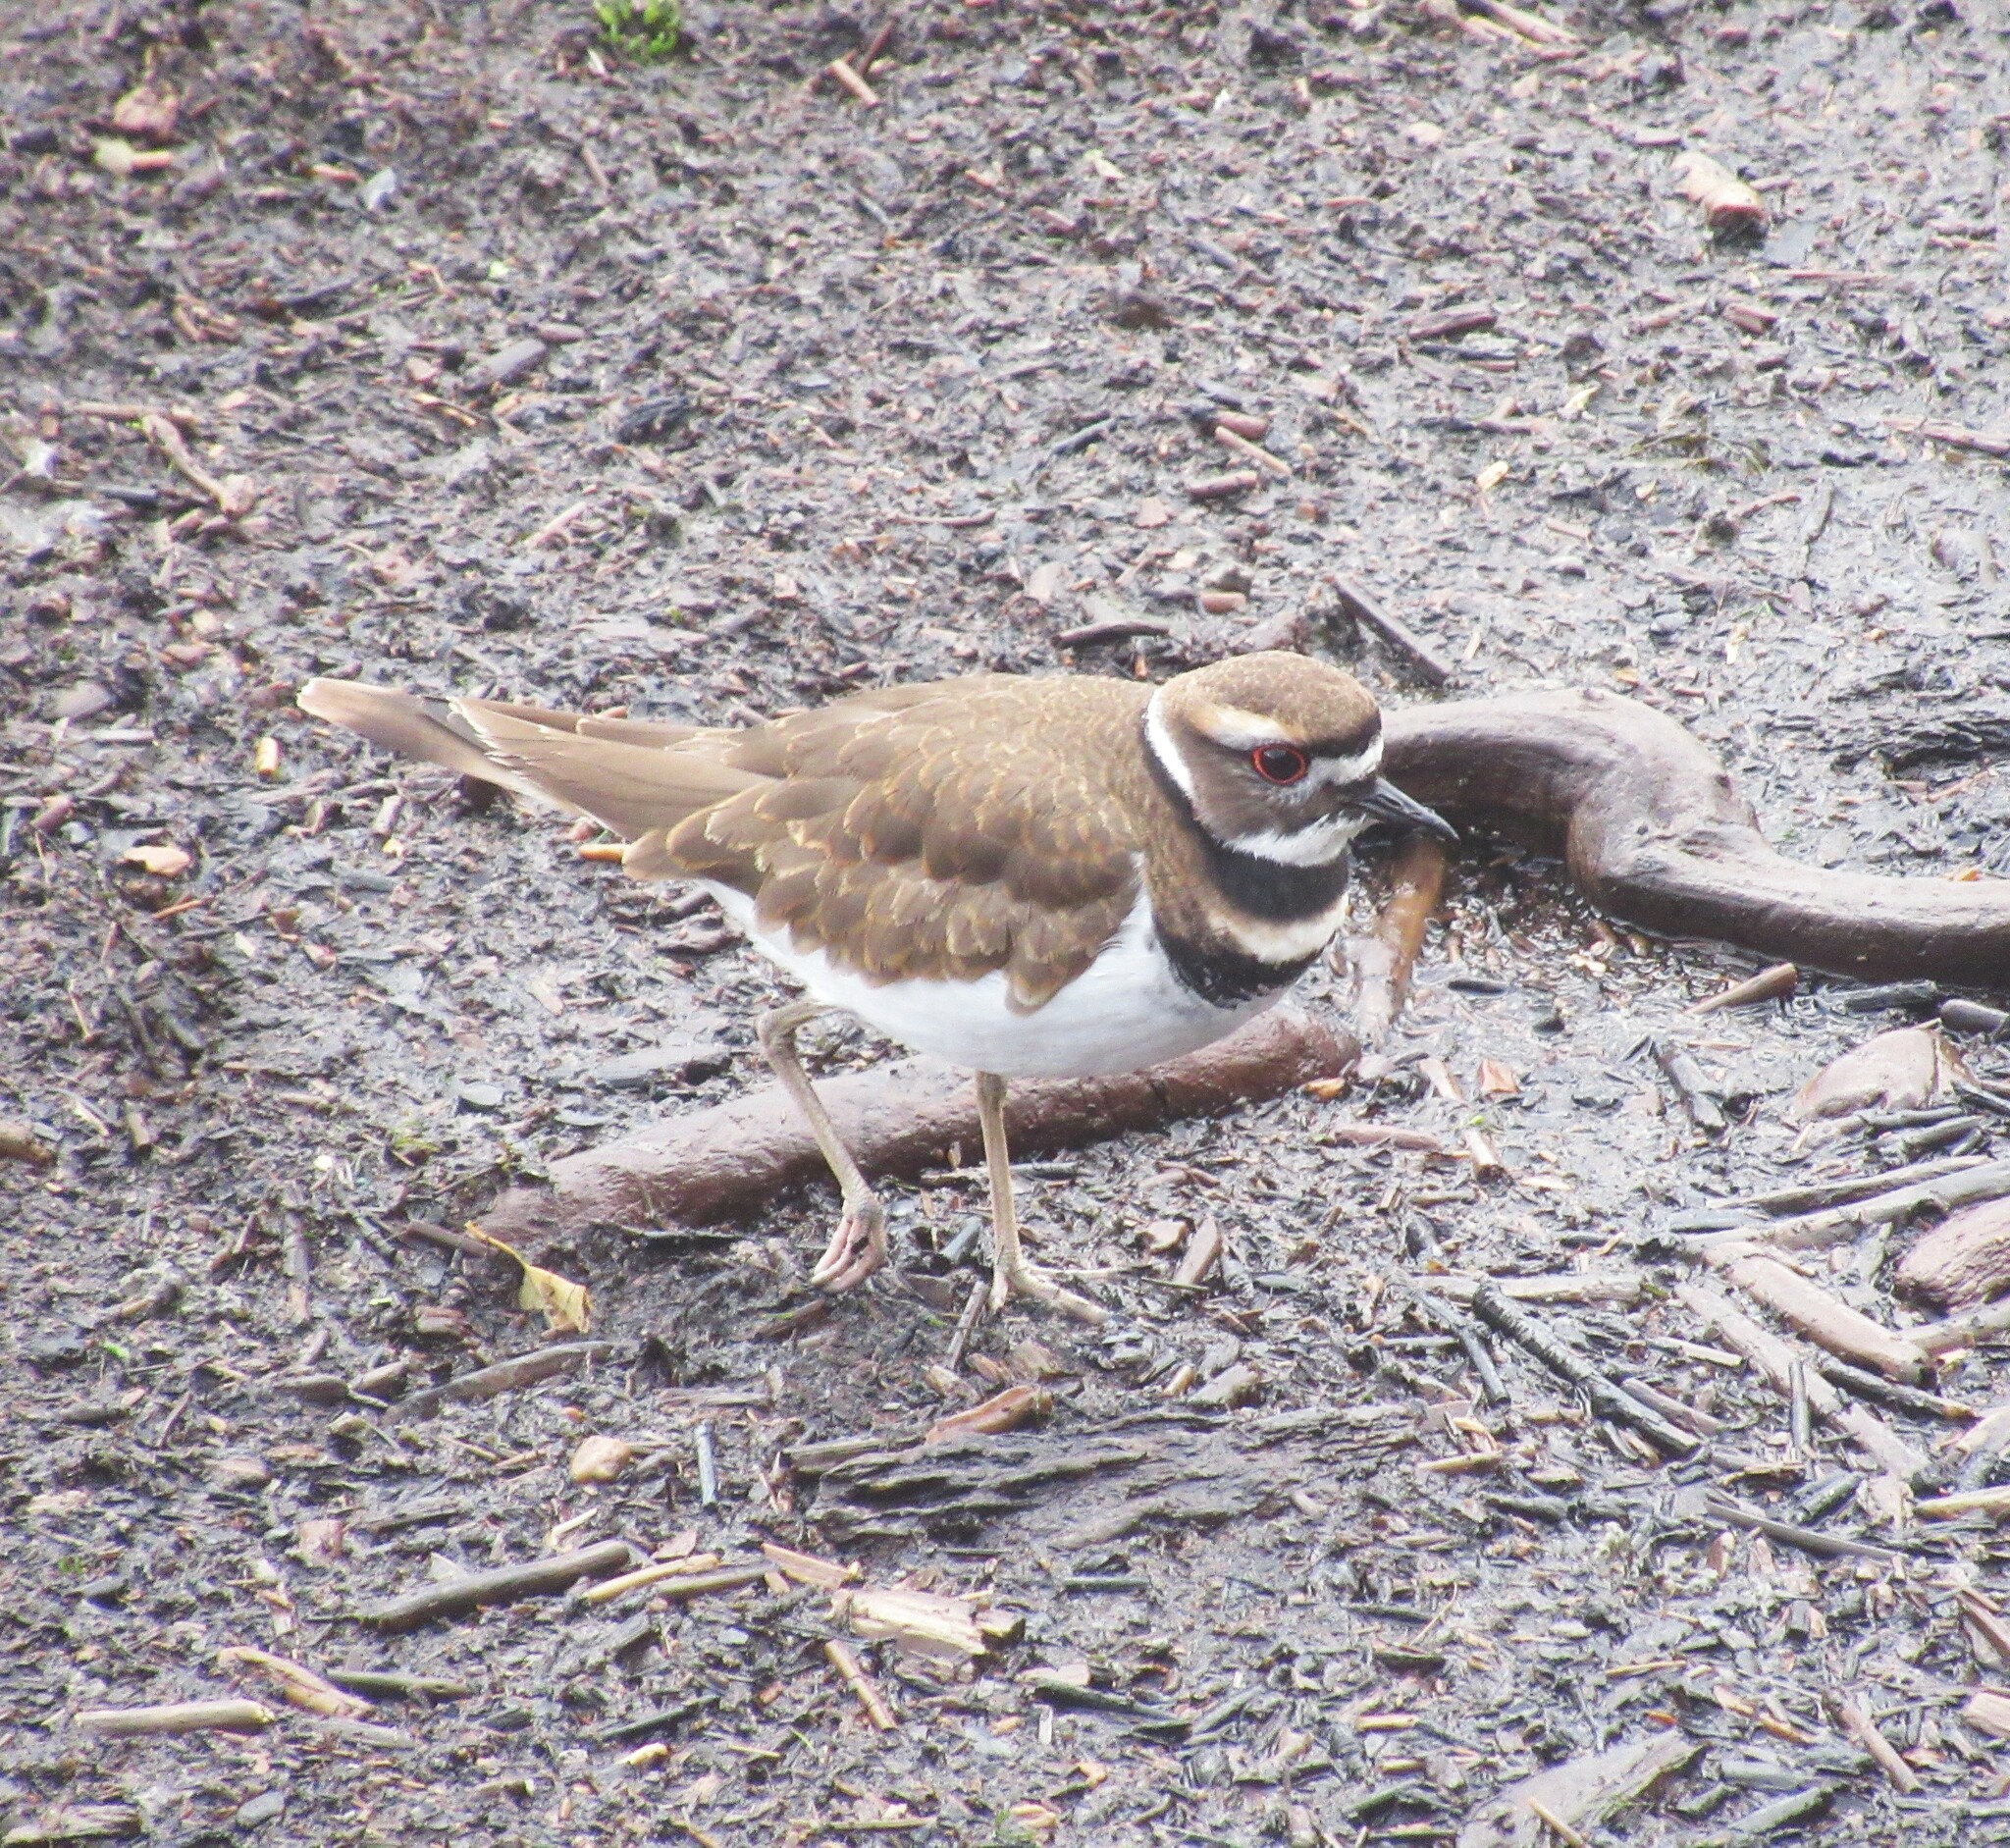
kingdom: Animalia
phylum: Chordata
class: Aves
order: Charadriiformes
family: Charadriidae
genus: Charadrius
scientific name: Charadrius vociferus
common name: Killdeer
